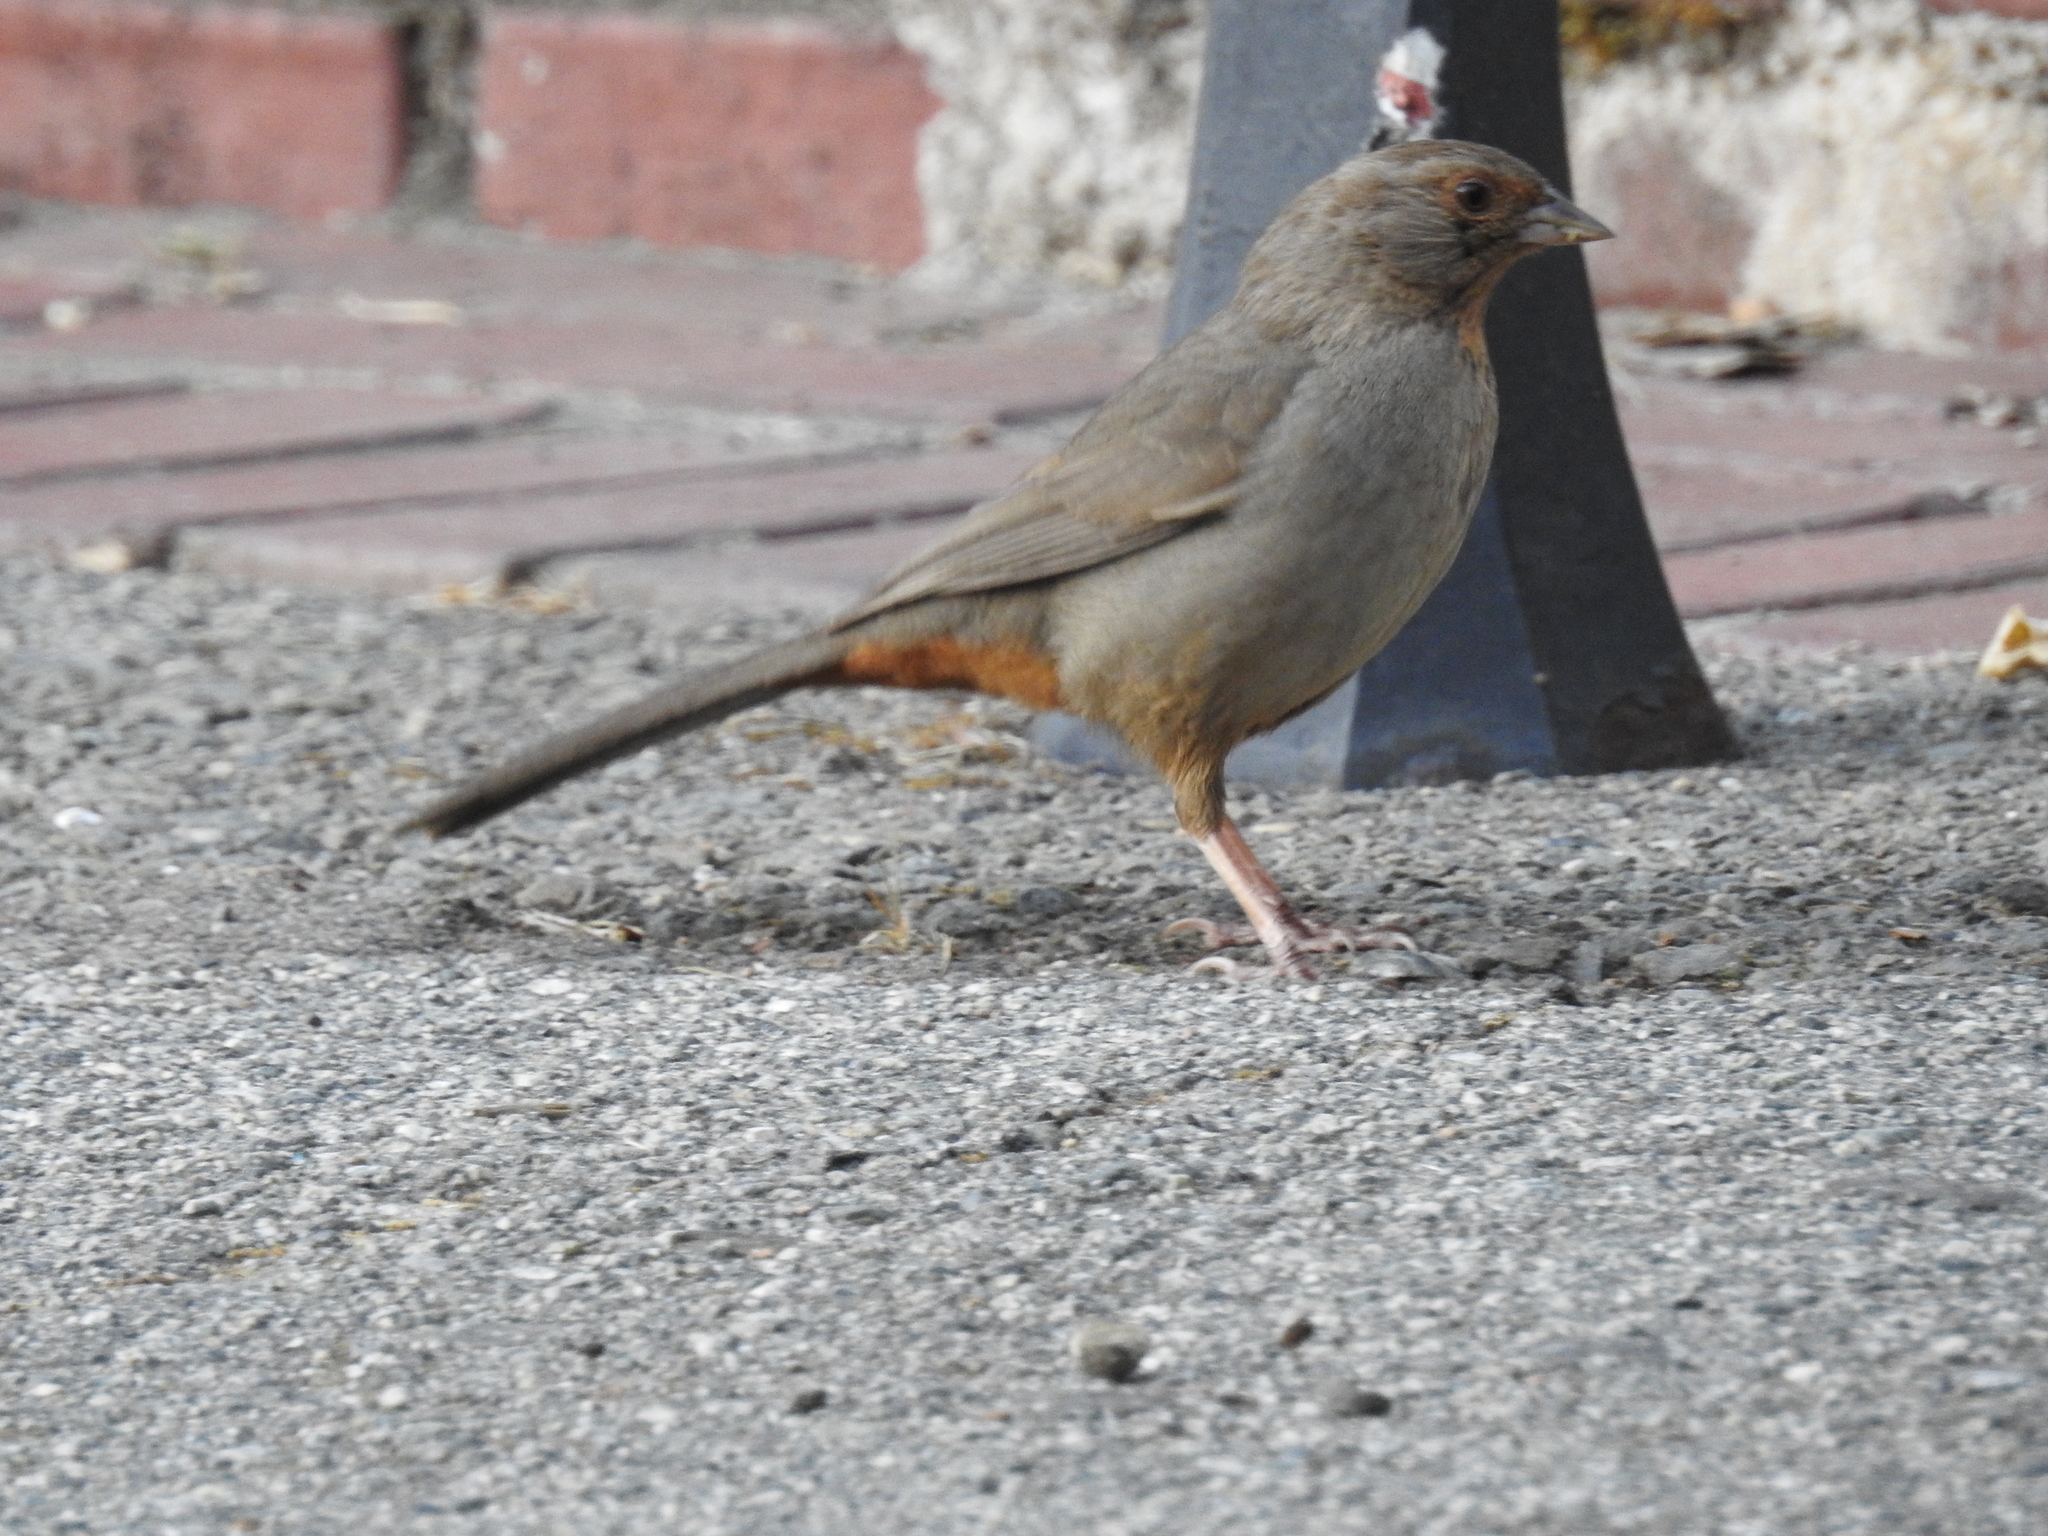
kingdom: Animalia
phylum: Chordata
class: Aves
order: Passeriformes
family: Passerellidae
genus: Melozone
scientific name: Melozone crissalis
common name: California towhee
